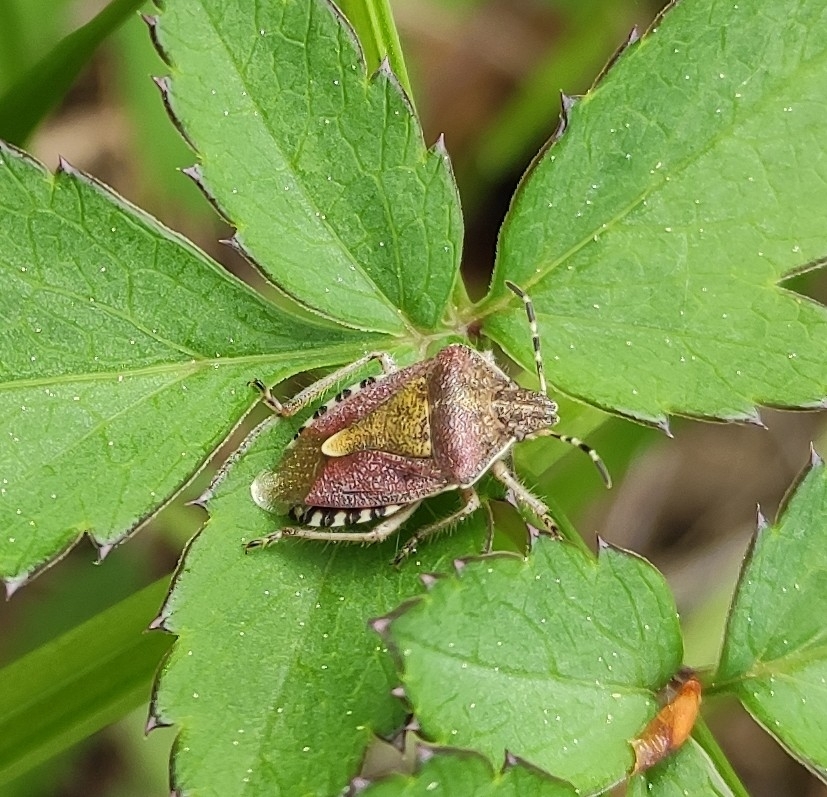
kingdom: Animalia
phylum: Arthropoda
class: Insecta
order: Hemiptera
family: Pentatomidae
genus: Dolycoris
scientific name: Dolycoris baccarum
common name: Sloe bug
